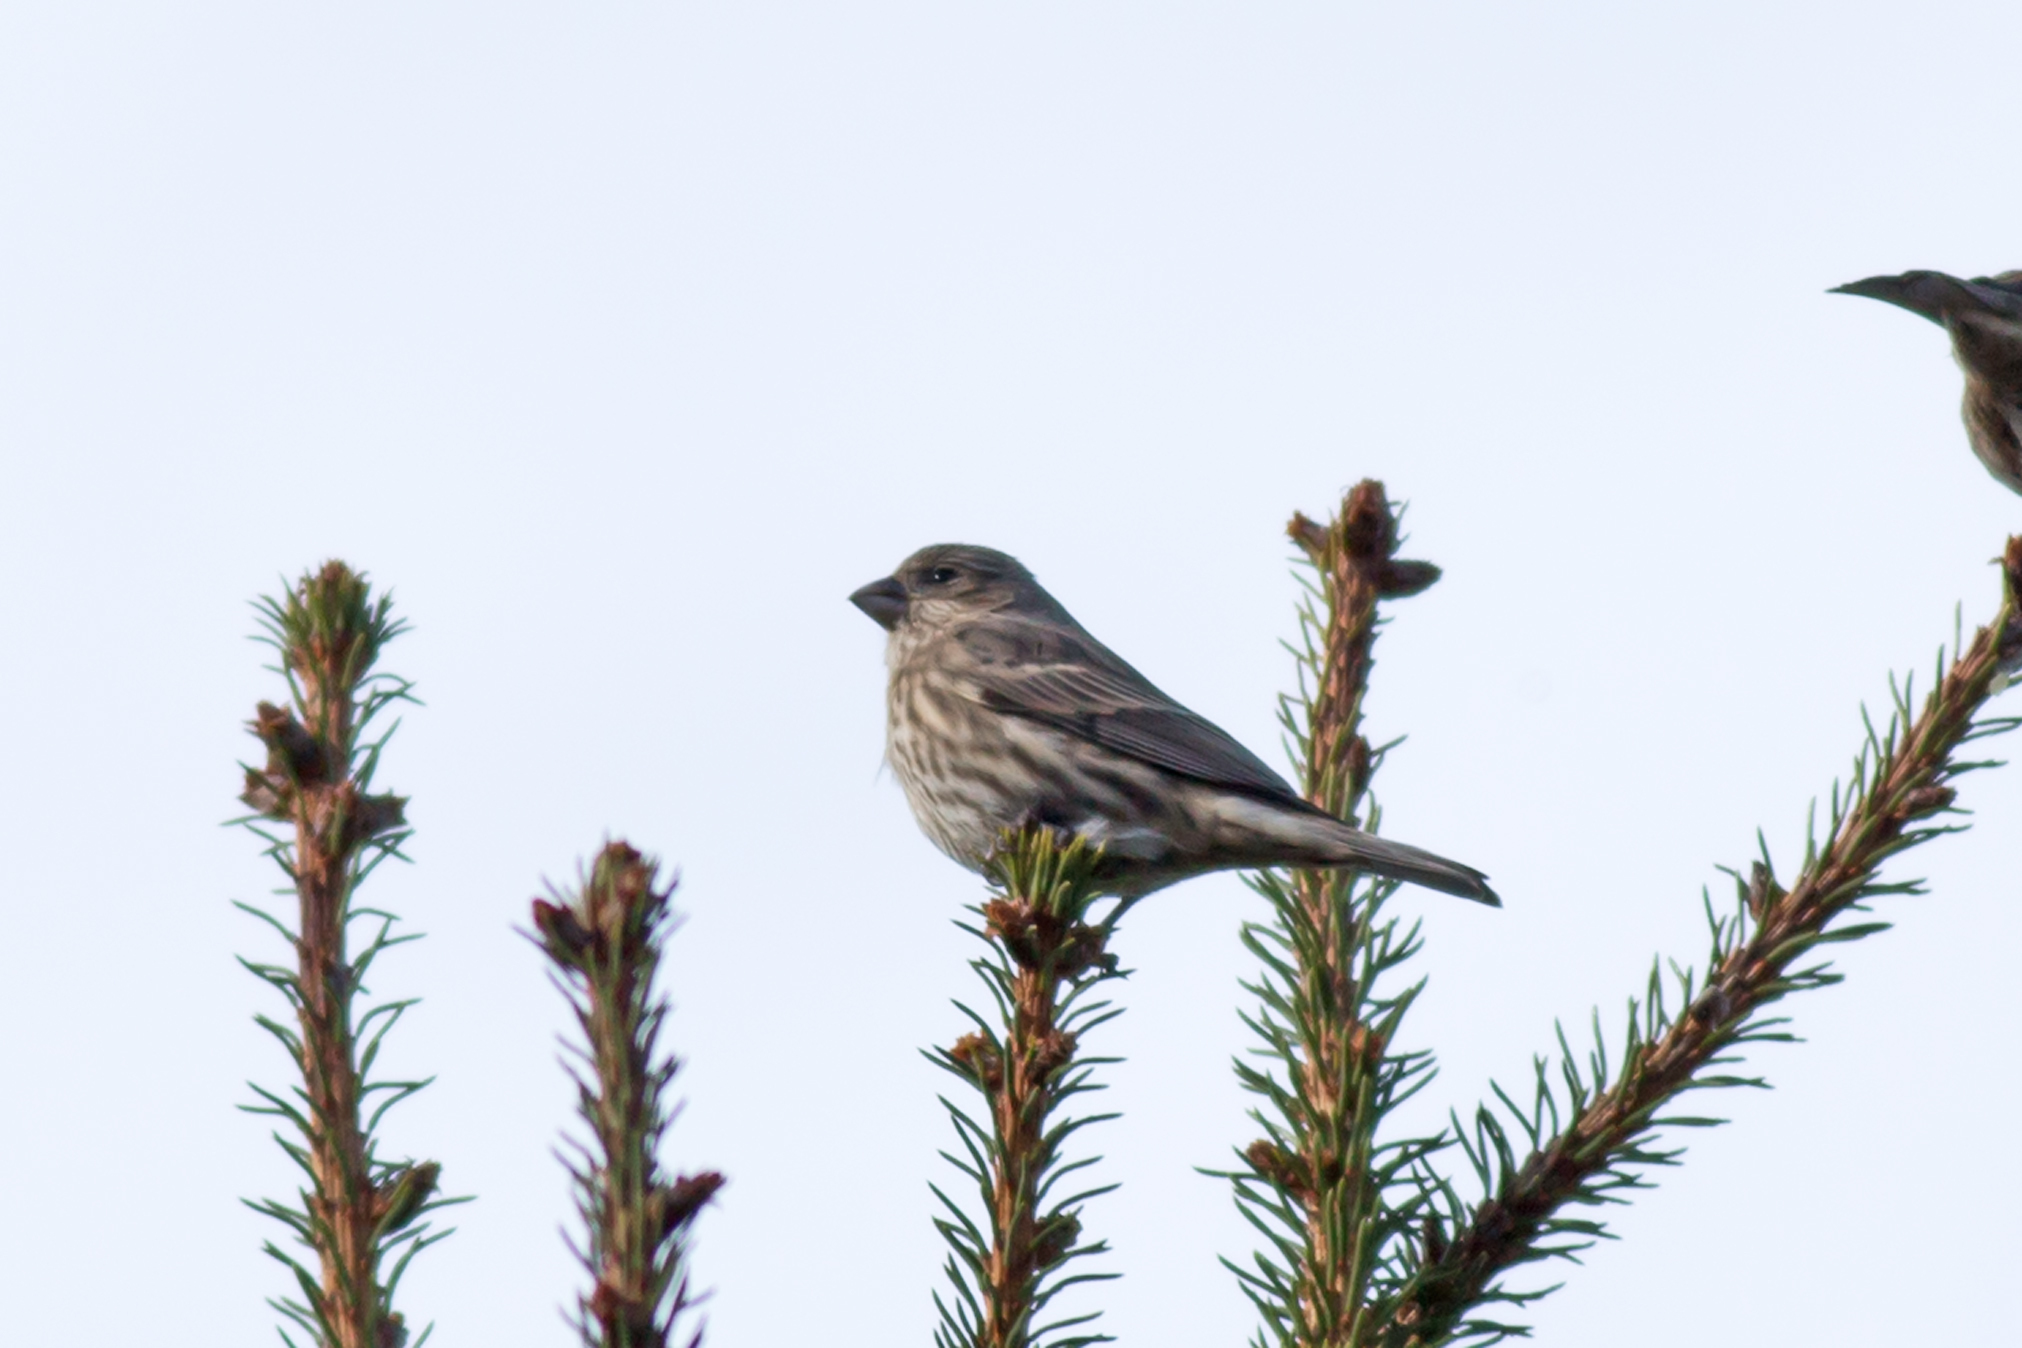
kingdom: Animalia
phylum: Chordata
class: Aves
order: Passeriformes
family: Fringillidae
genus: Haemorhous
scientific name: Haemorhous mexicanus
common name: House finch
